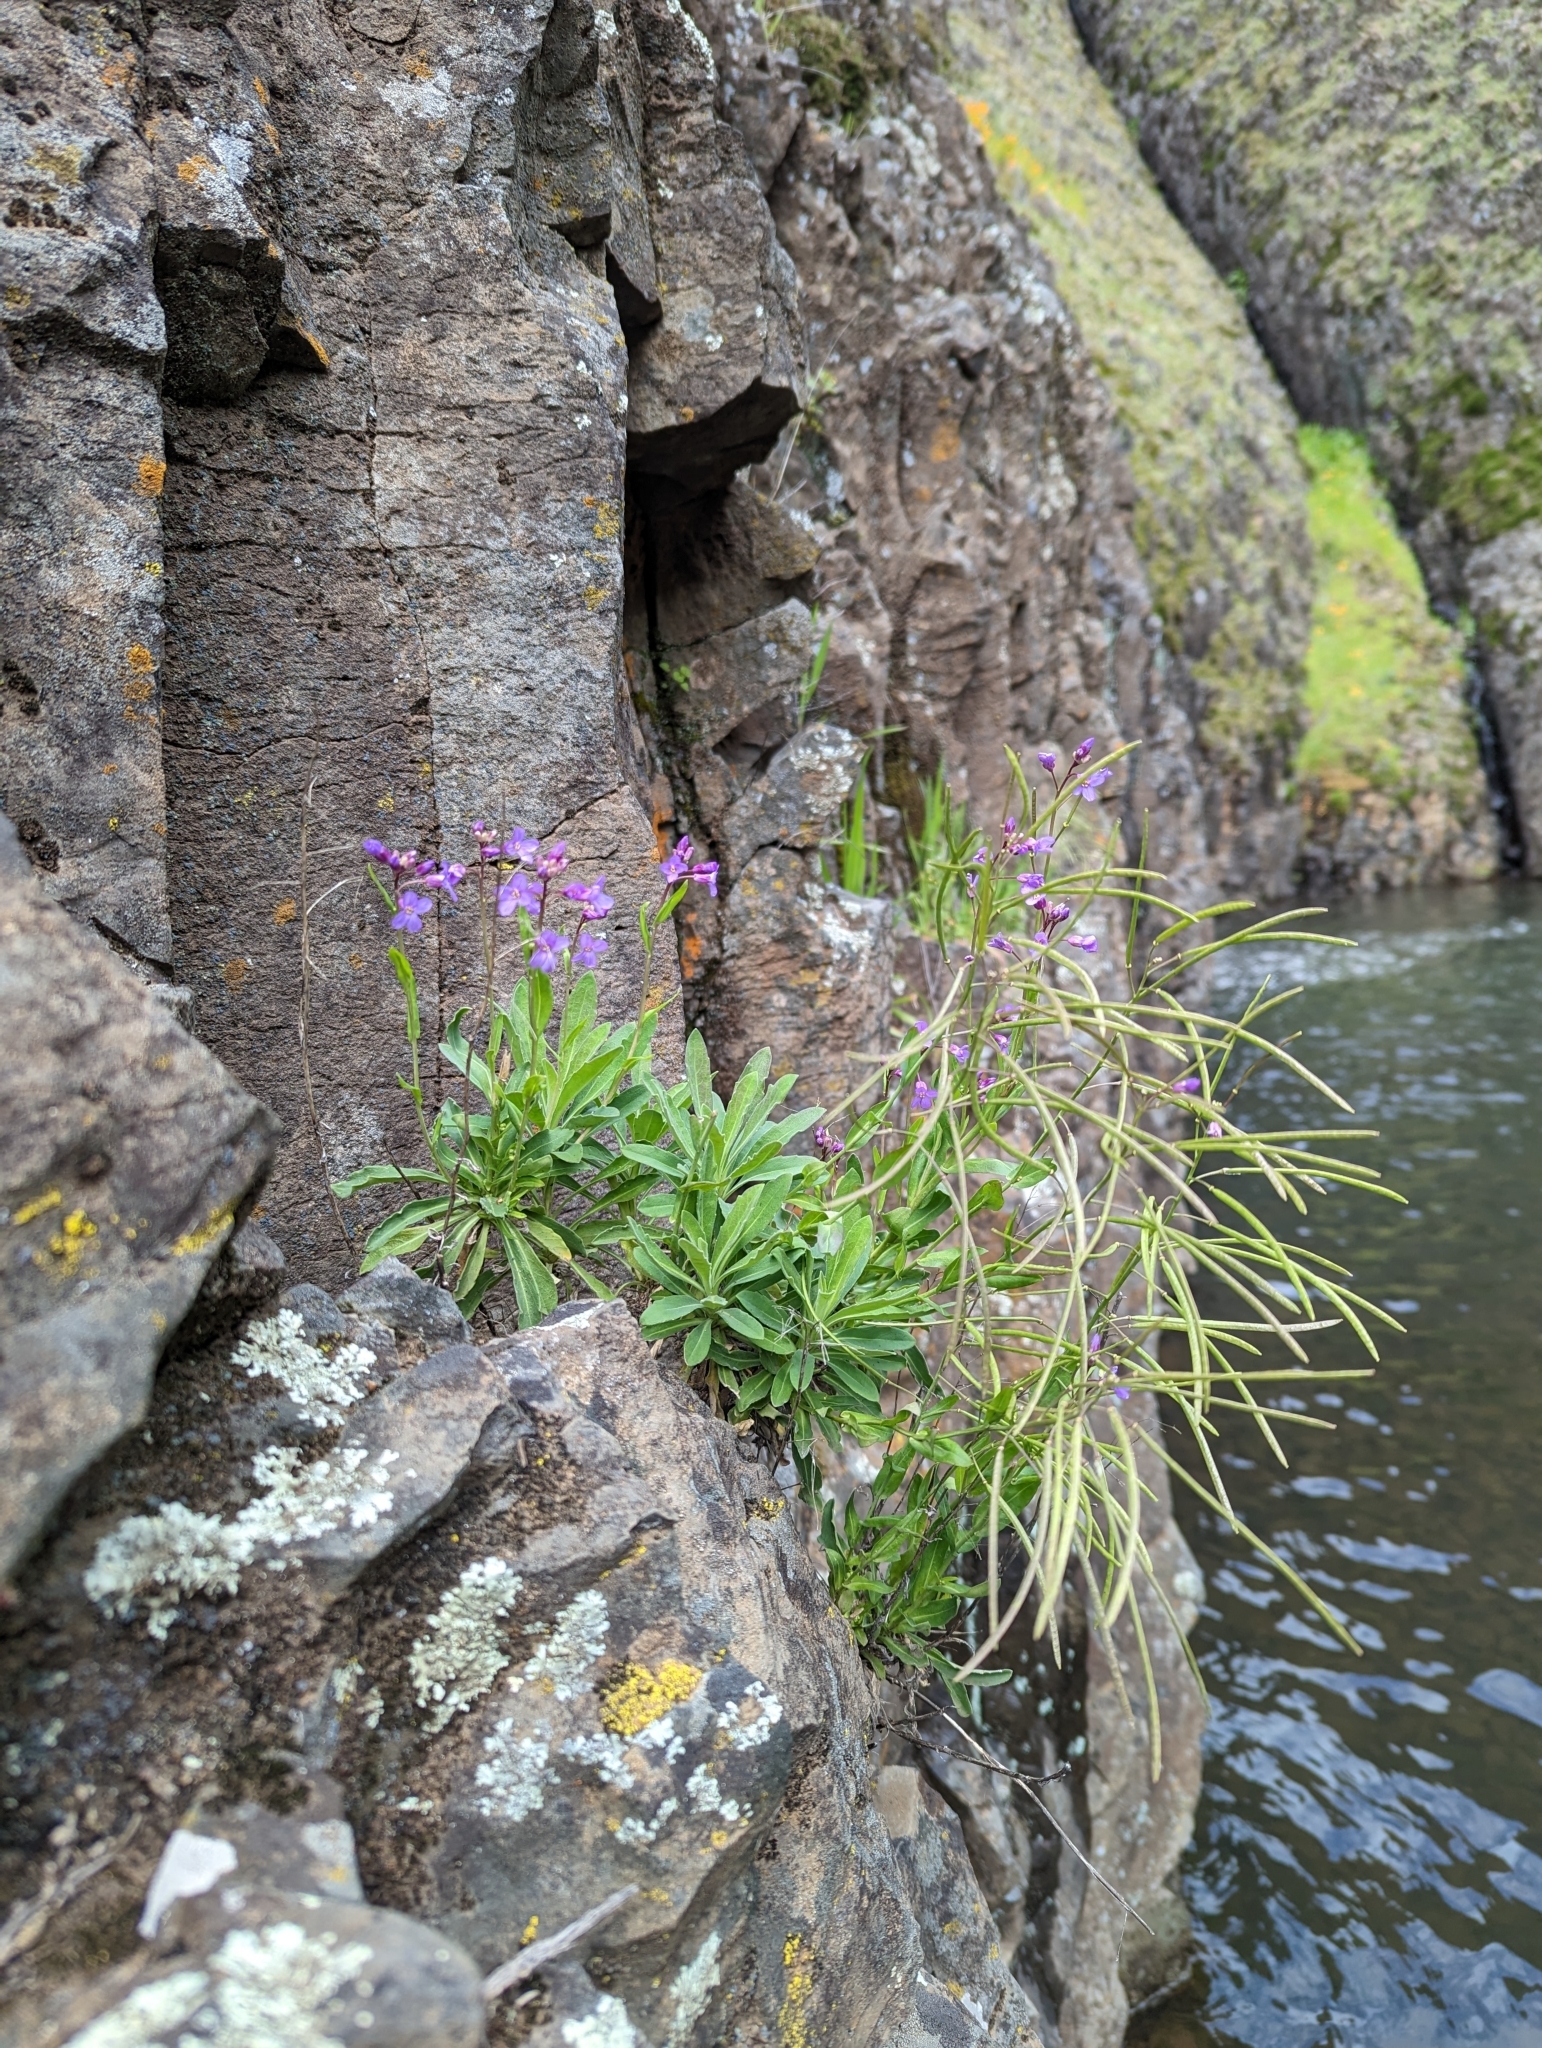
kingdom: Plantae
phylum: Tracheophyta
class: Magnoliopsida
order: Brassicales
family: Brassicaceae
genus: Boechera
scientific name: Boechera breweri
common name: Brewer's rockcress
